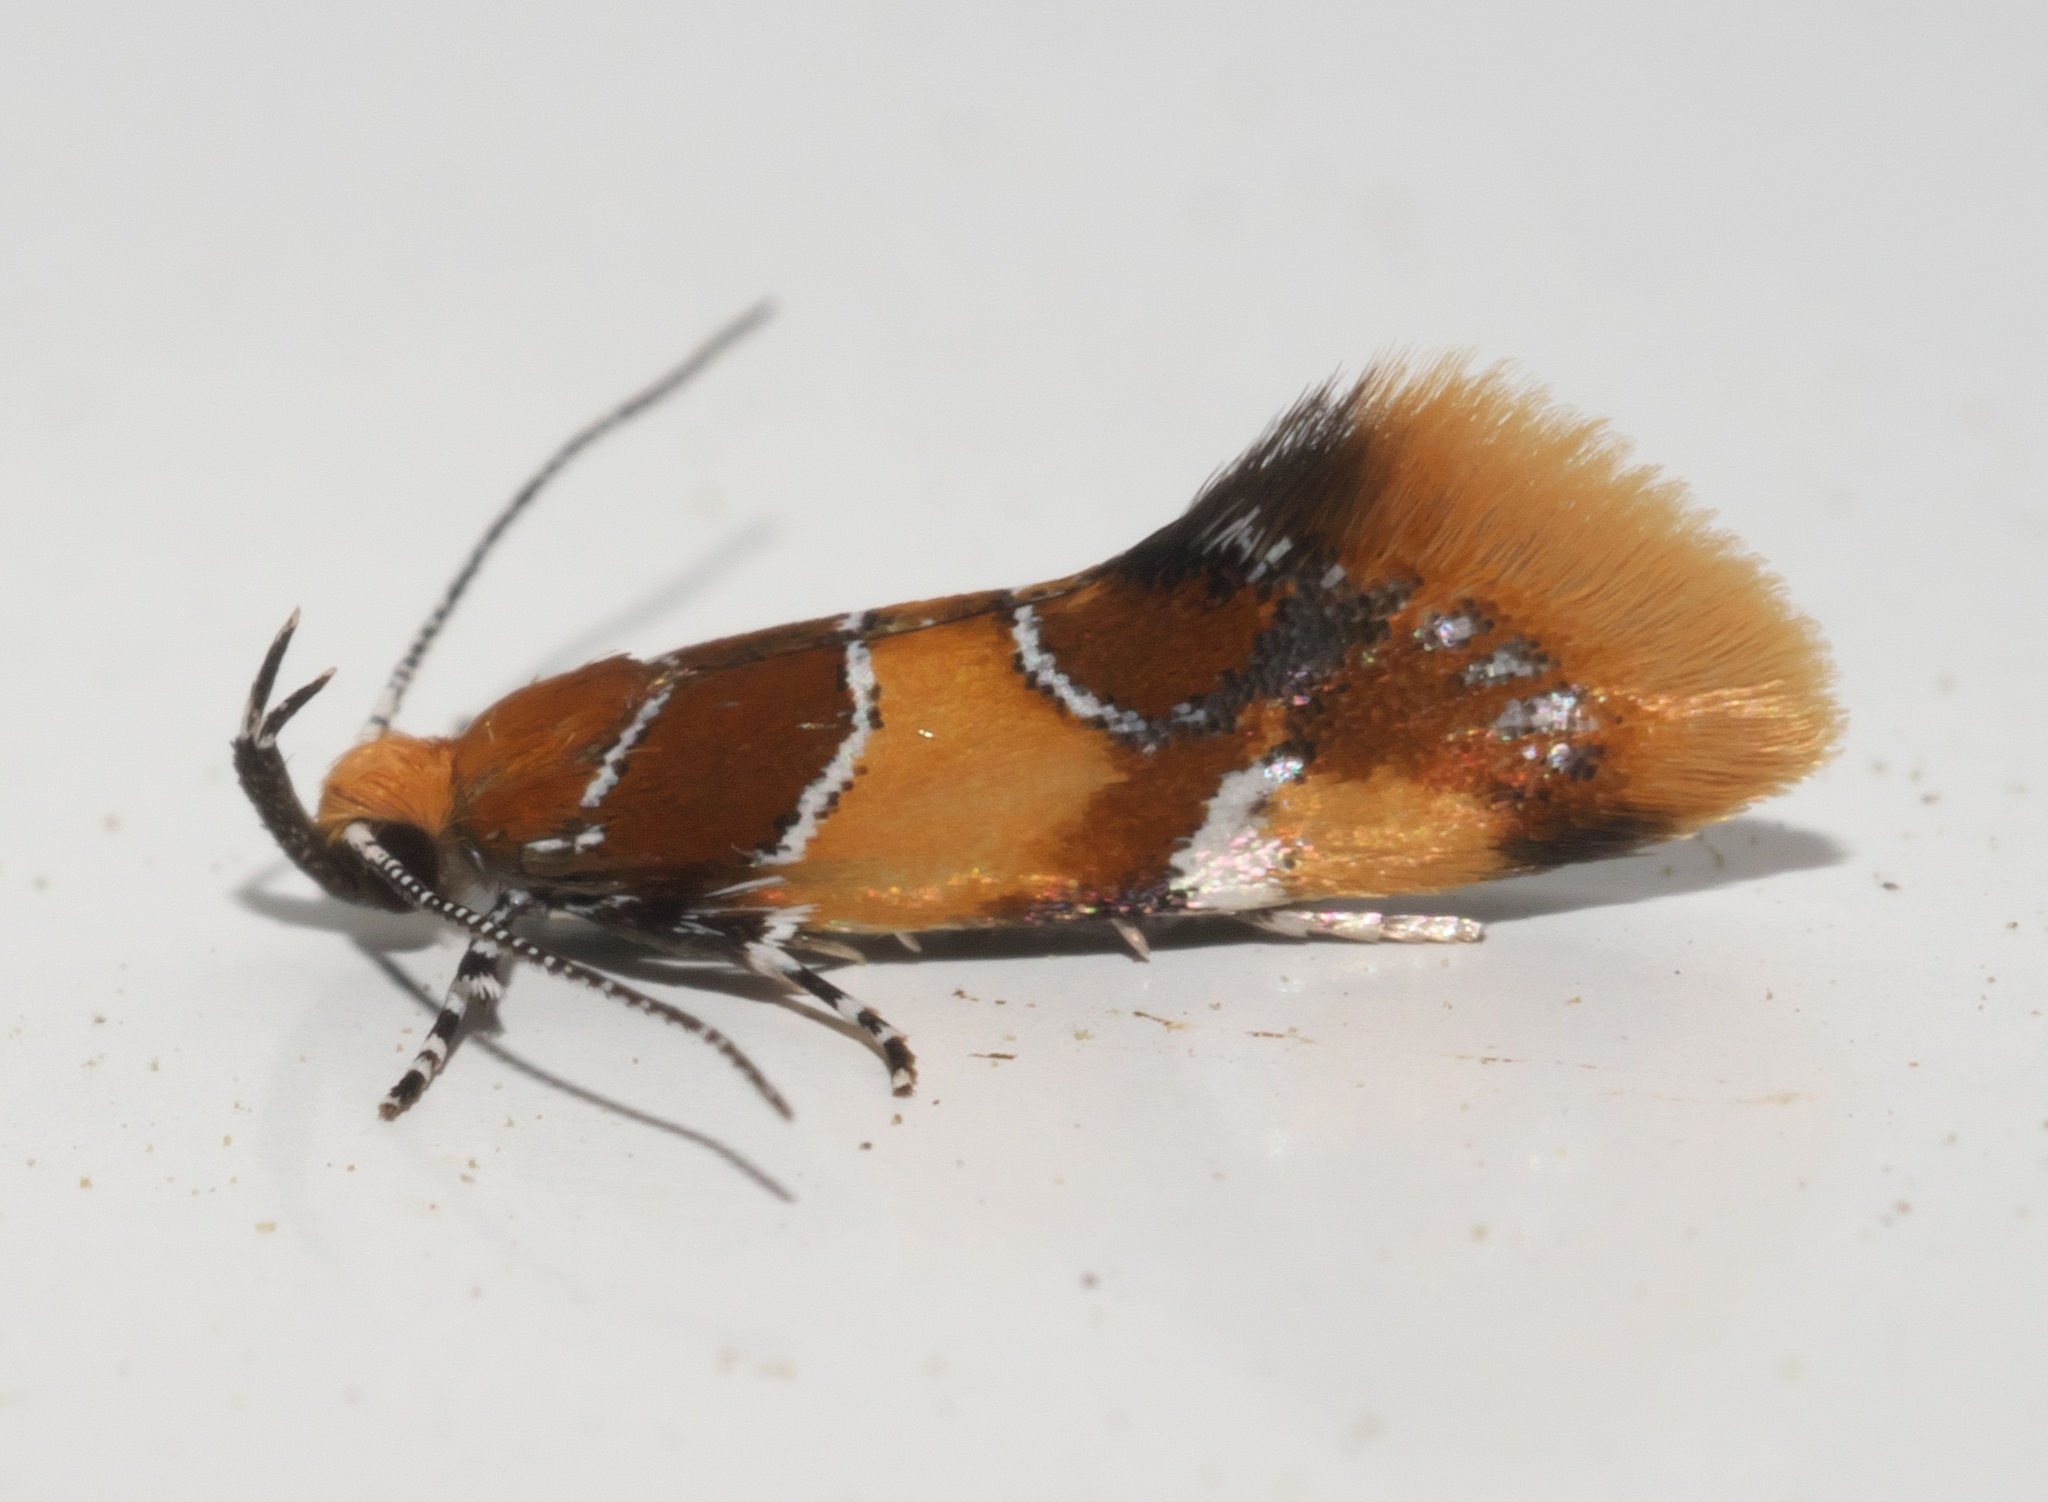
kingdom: Animalia
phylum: Arthropoda
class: Insecta
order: Lepidoptera
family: Oecophoridae
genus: Callima
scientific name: Callima argenticinctella
